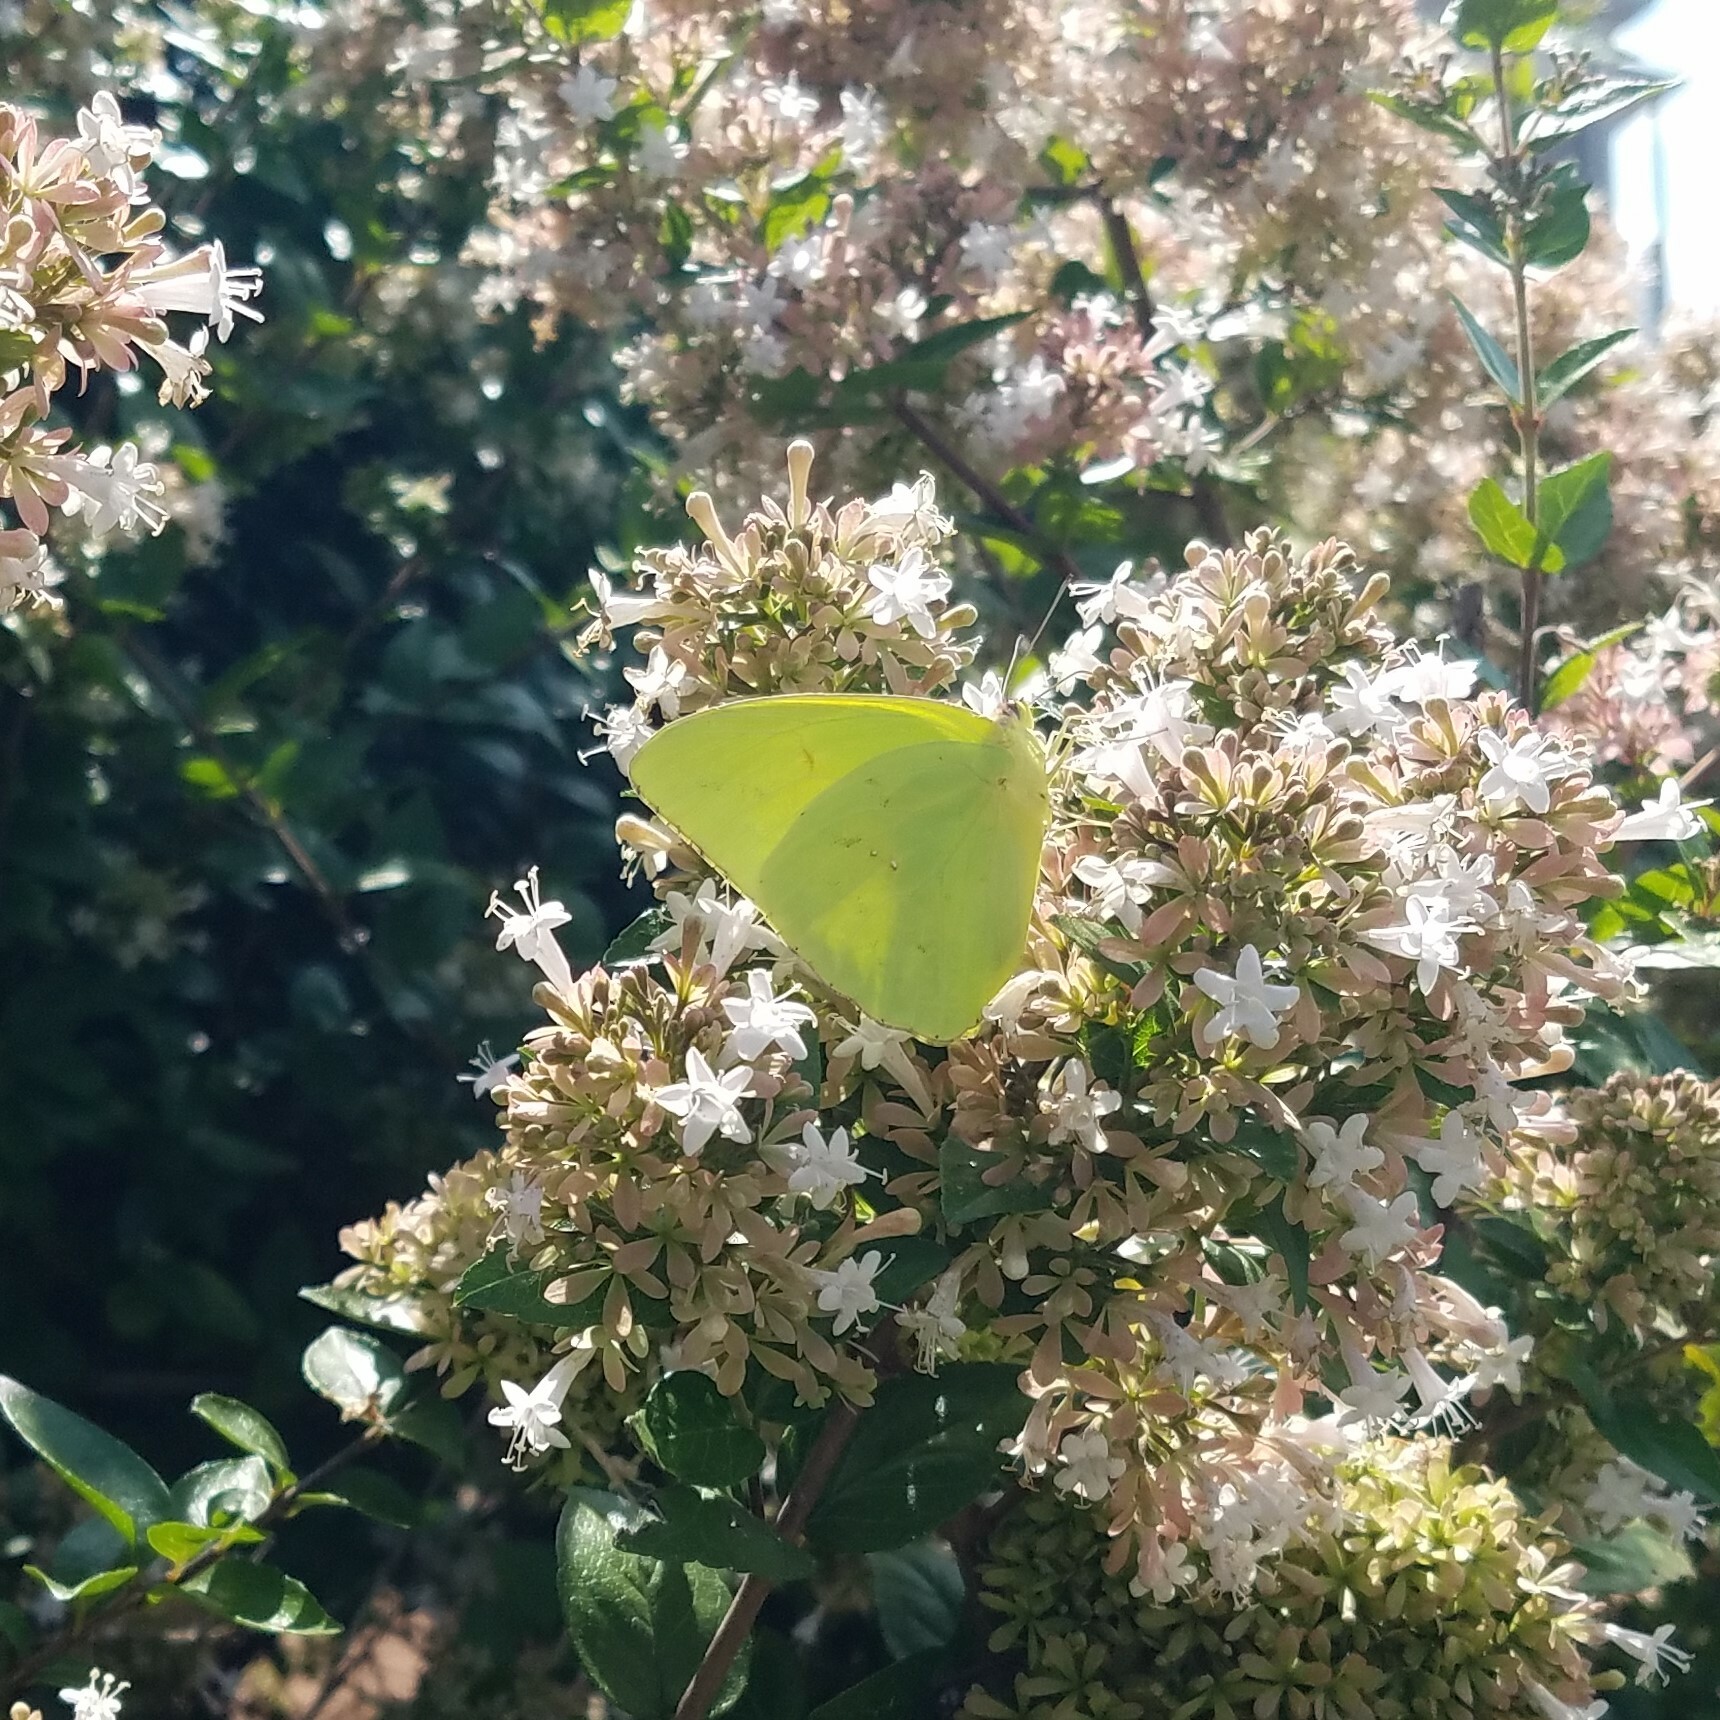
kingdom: Animalia
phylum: Arthropoda
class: Insecta
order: Lepidoptera
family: Pieridae
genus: Phoebis
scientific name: Phoebis sennae
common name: Cloudless sulphur
